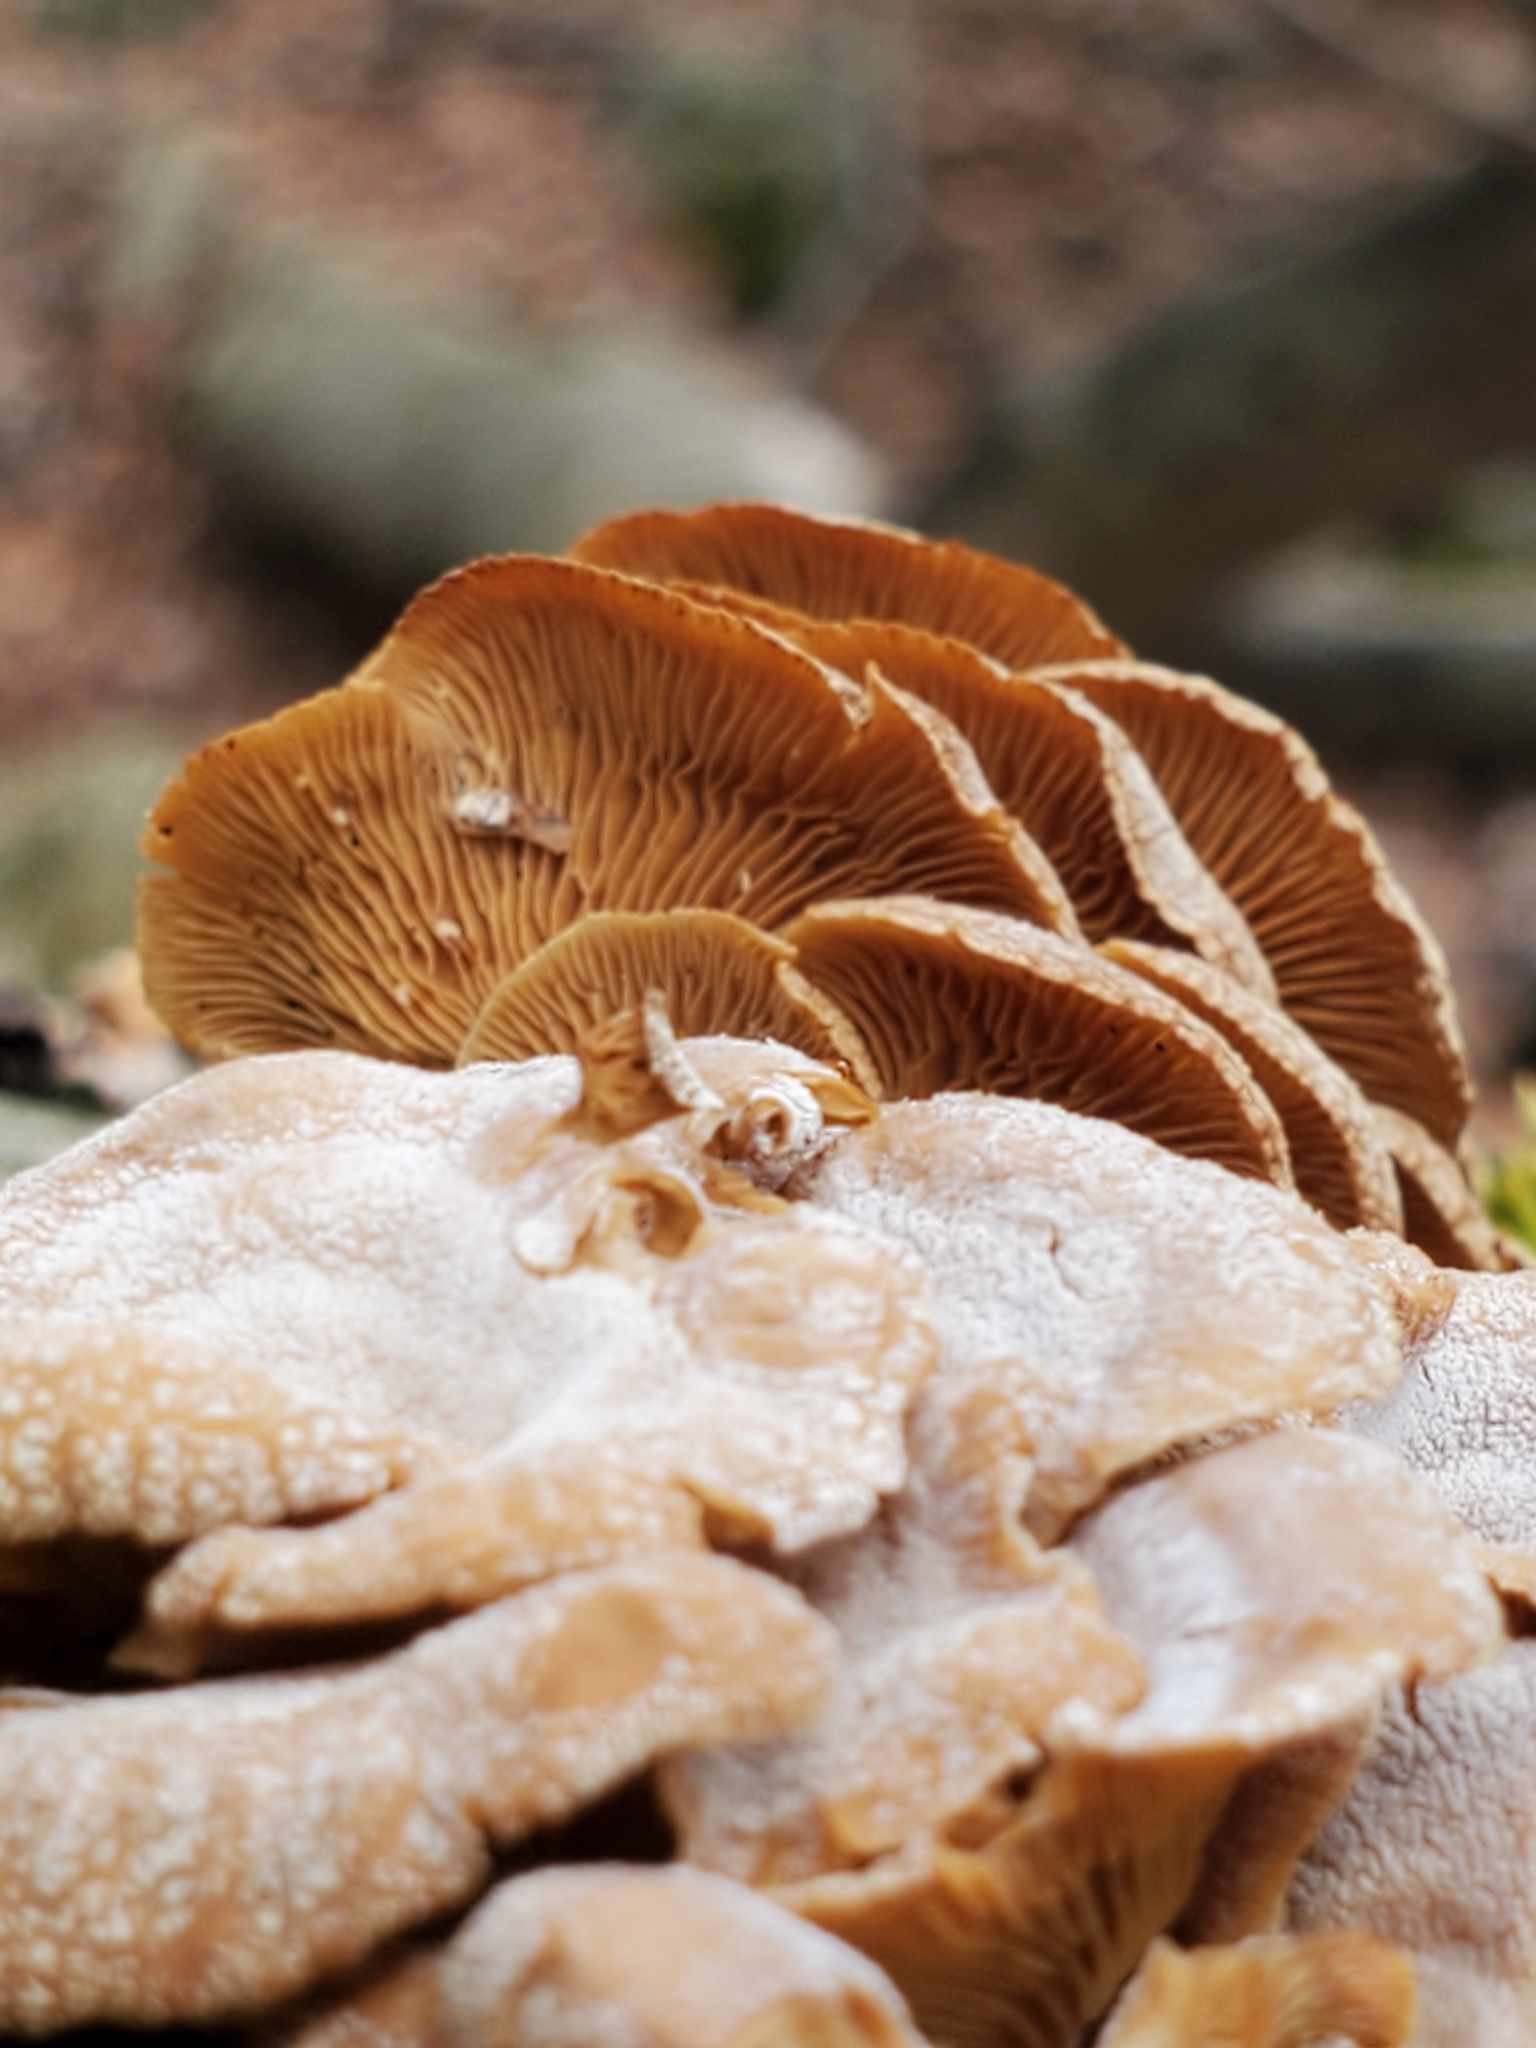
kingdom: Fungi
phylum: Basidiomycota
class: Agaricomycetes
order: Agaricales
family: Mycenaceae
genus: Panellus
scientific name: Panellus stipticus
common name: Bitter oysterling
